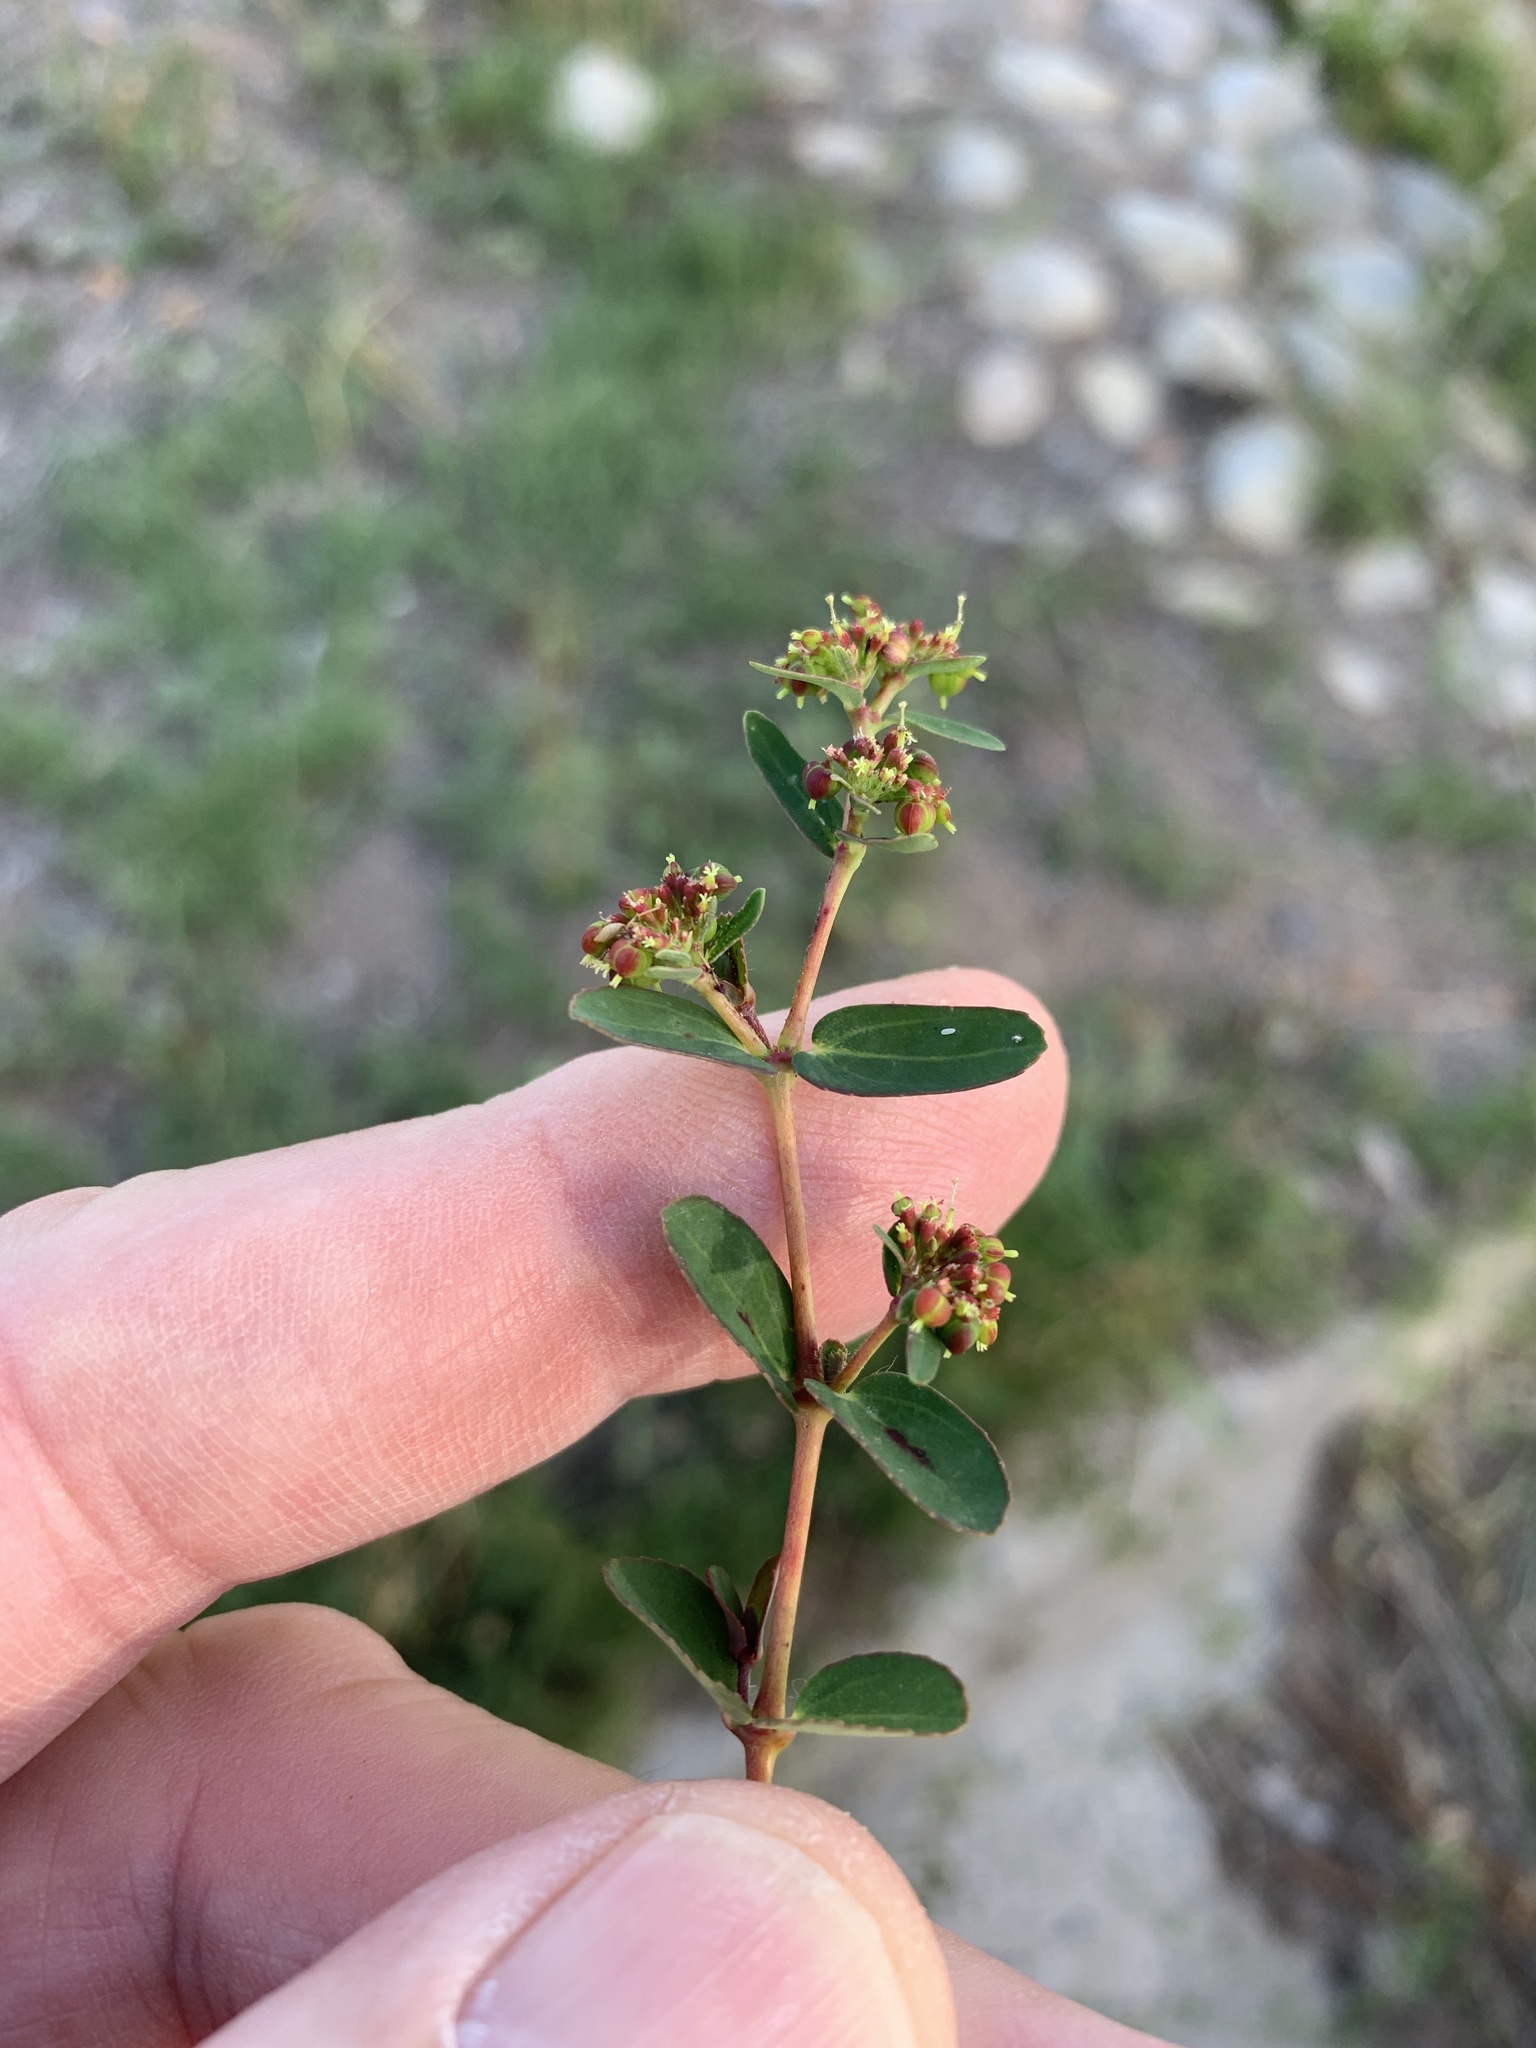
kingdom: Plantae
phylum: Tracheophyta
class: Magnoliopsida
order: Malpighiales
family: Euphorbiaceae
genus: Euphorbia
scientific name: Euphorbia nutans
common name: Eyebane
